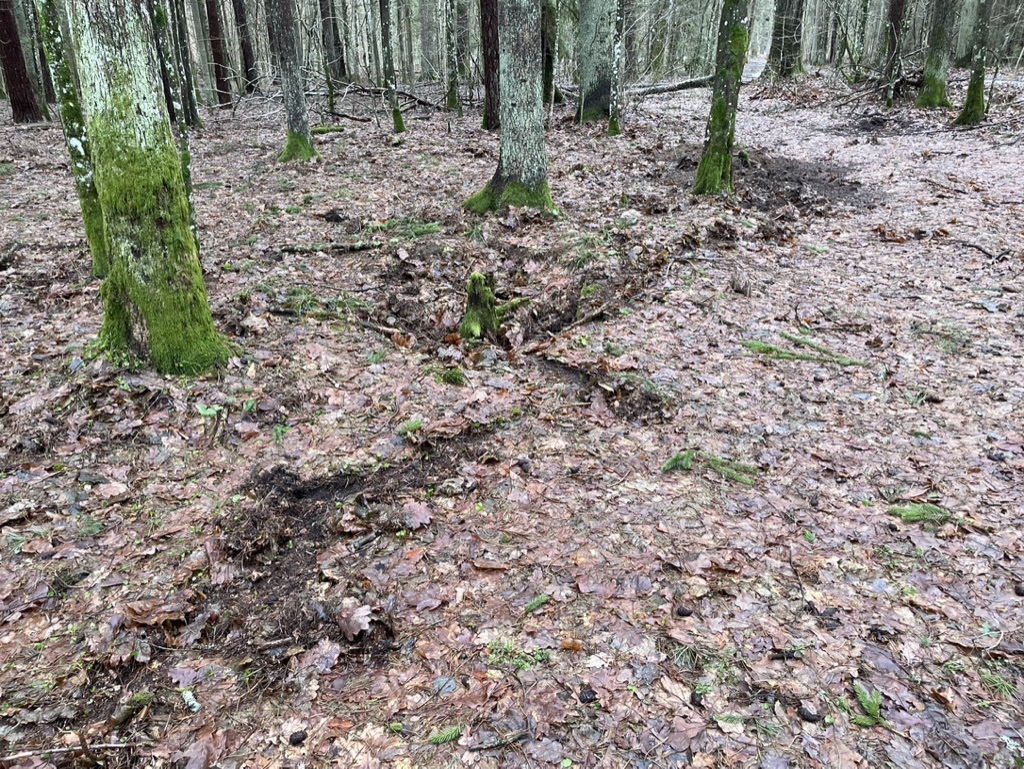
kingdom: Animalia
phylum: Chordata
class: Mammalia
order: Artiodactyla
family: Suidae
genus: Sus
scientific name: Sus scrofa
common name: Wild boar
